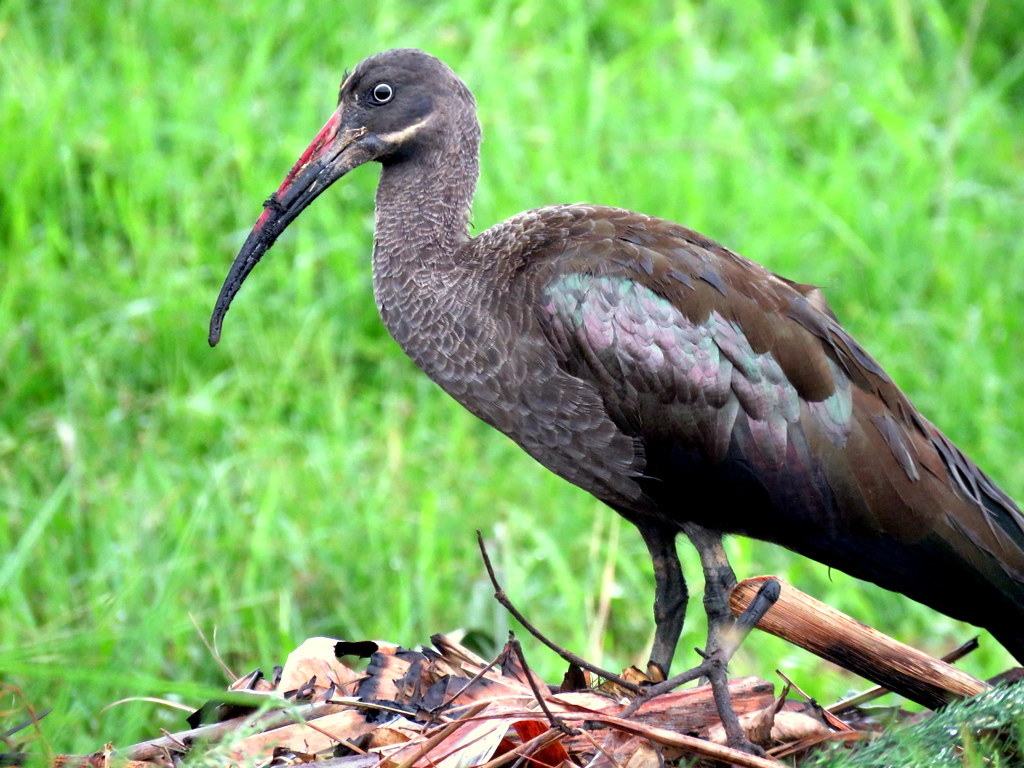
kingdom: Animalia
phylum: Chordata
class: Aves
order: Pelecaniformes
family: Threskiornithidae
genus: Bostrychia
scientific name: Bostrychia hagedash
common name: Hadada ibis
